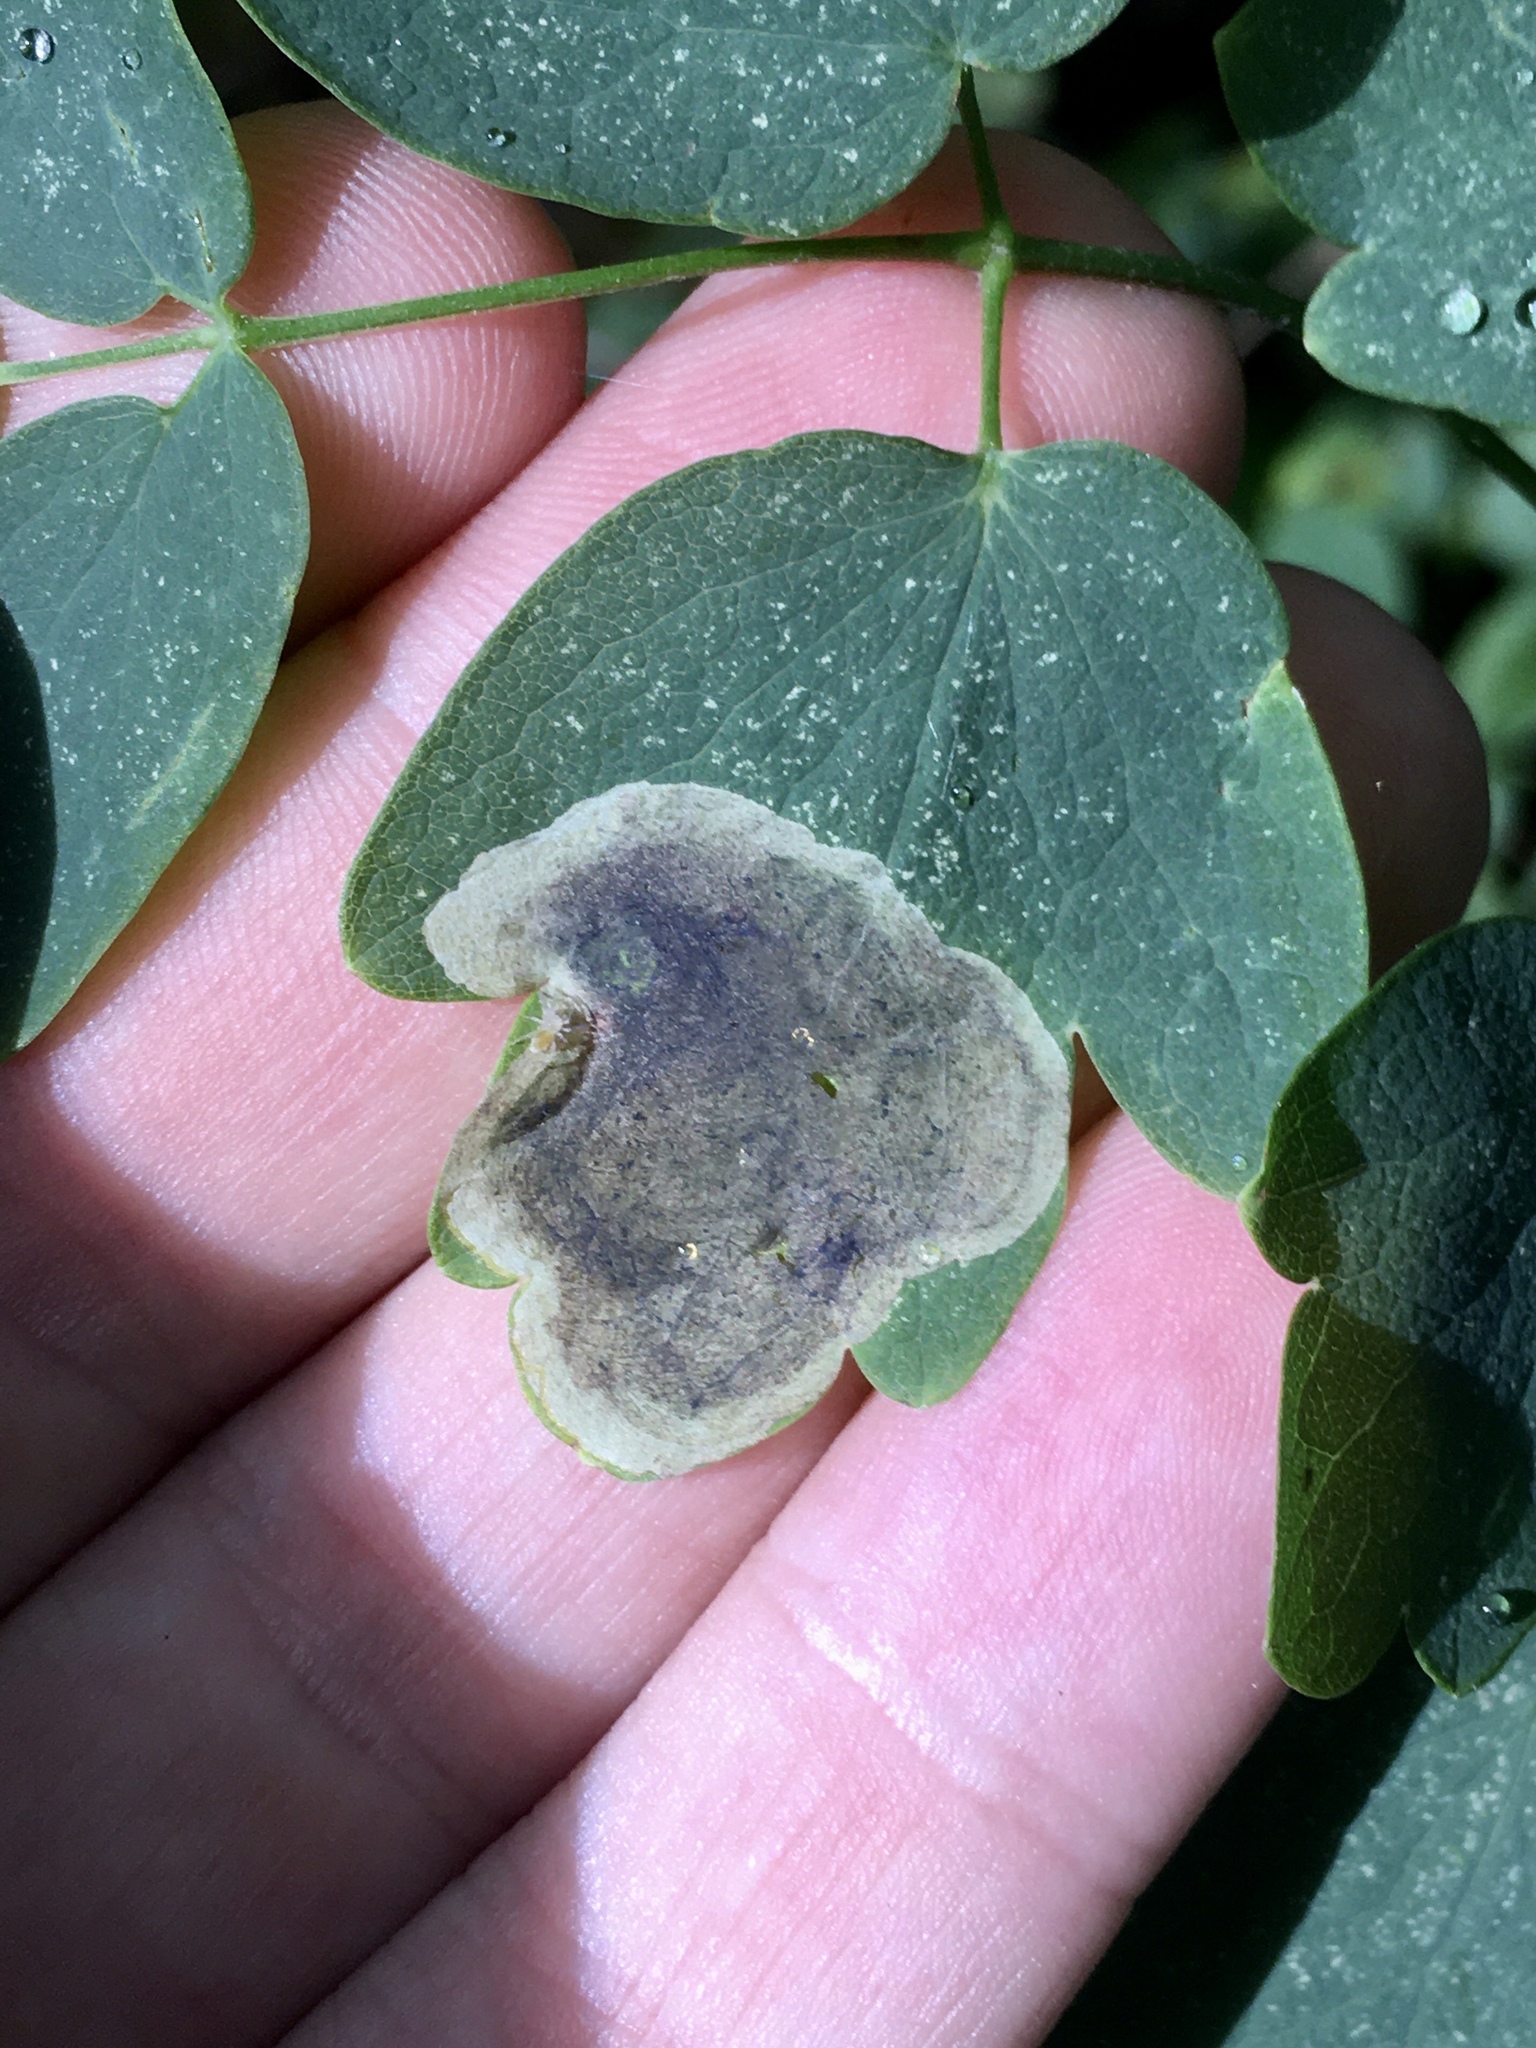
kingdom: Animalia
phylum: Arthropoda
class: Insecta
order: Diptera
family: Agromyzidae
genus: Phytomyza
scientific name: Phytomyza plumiseta
